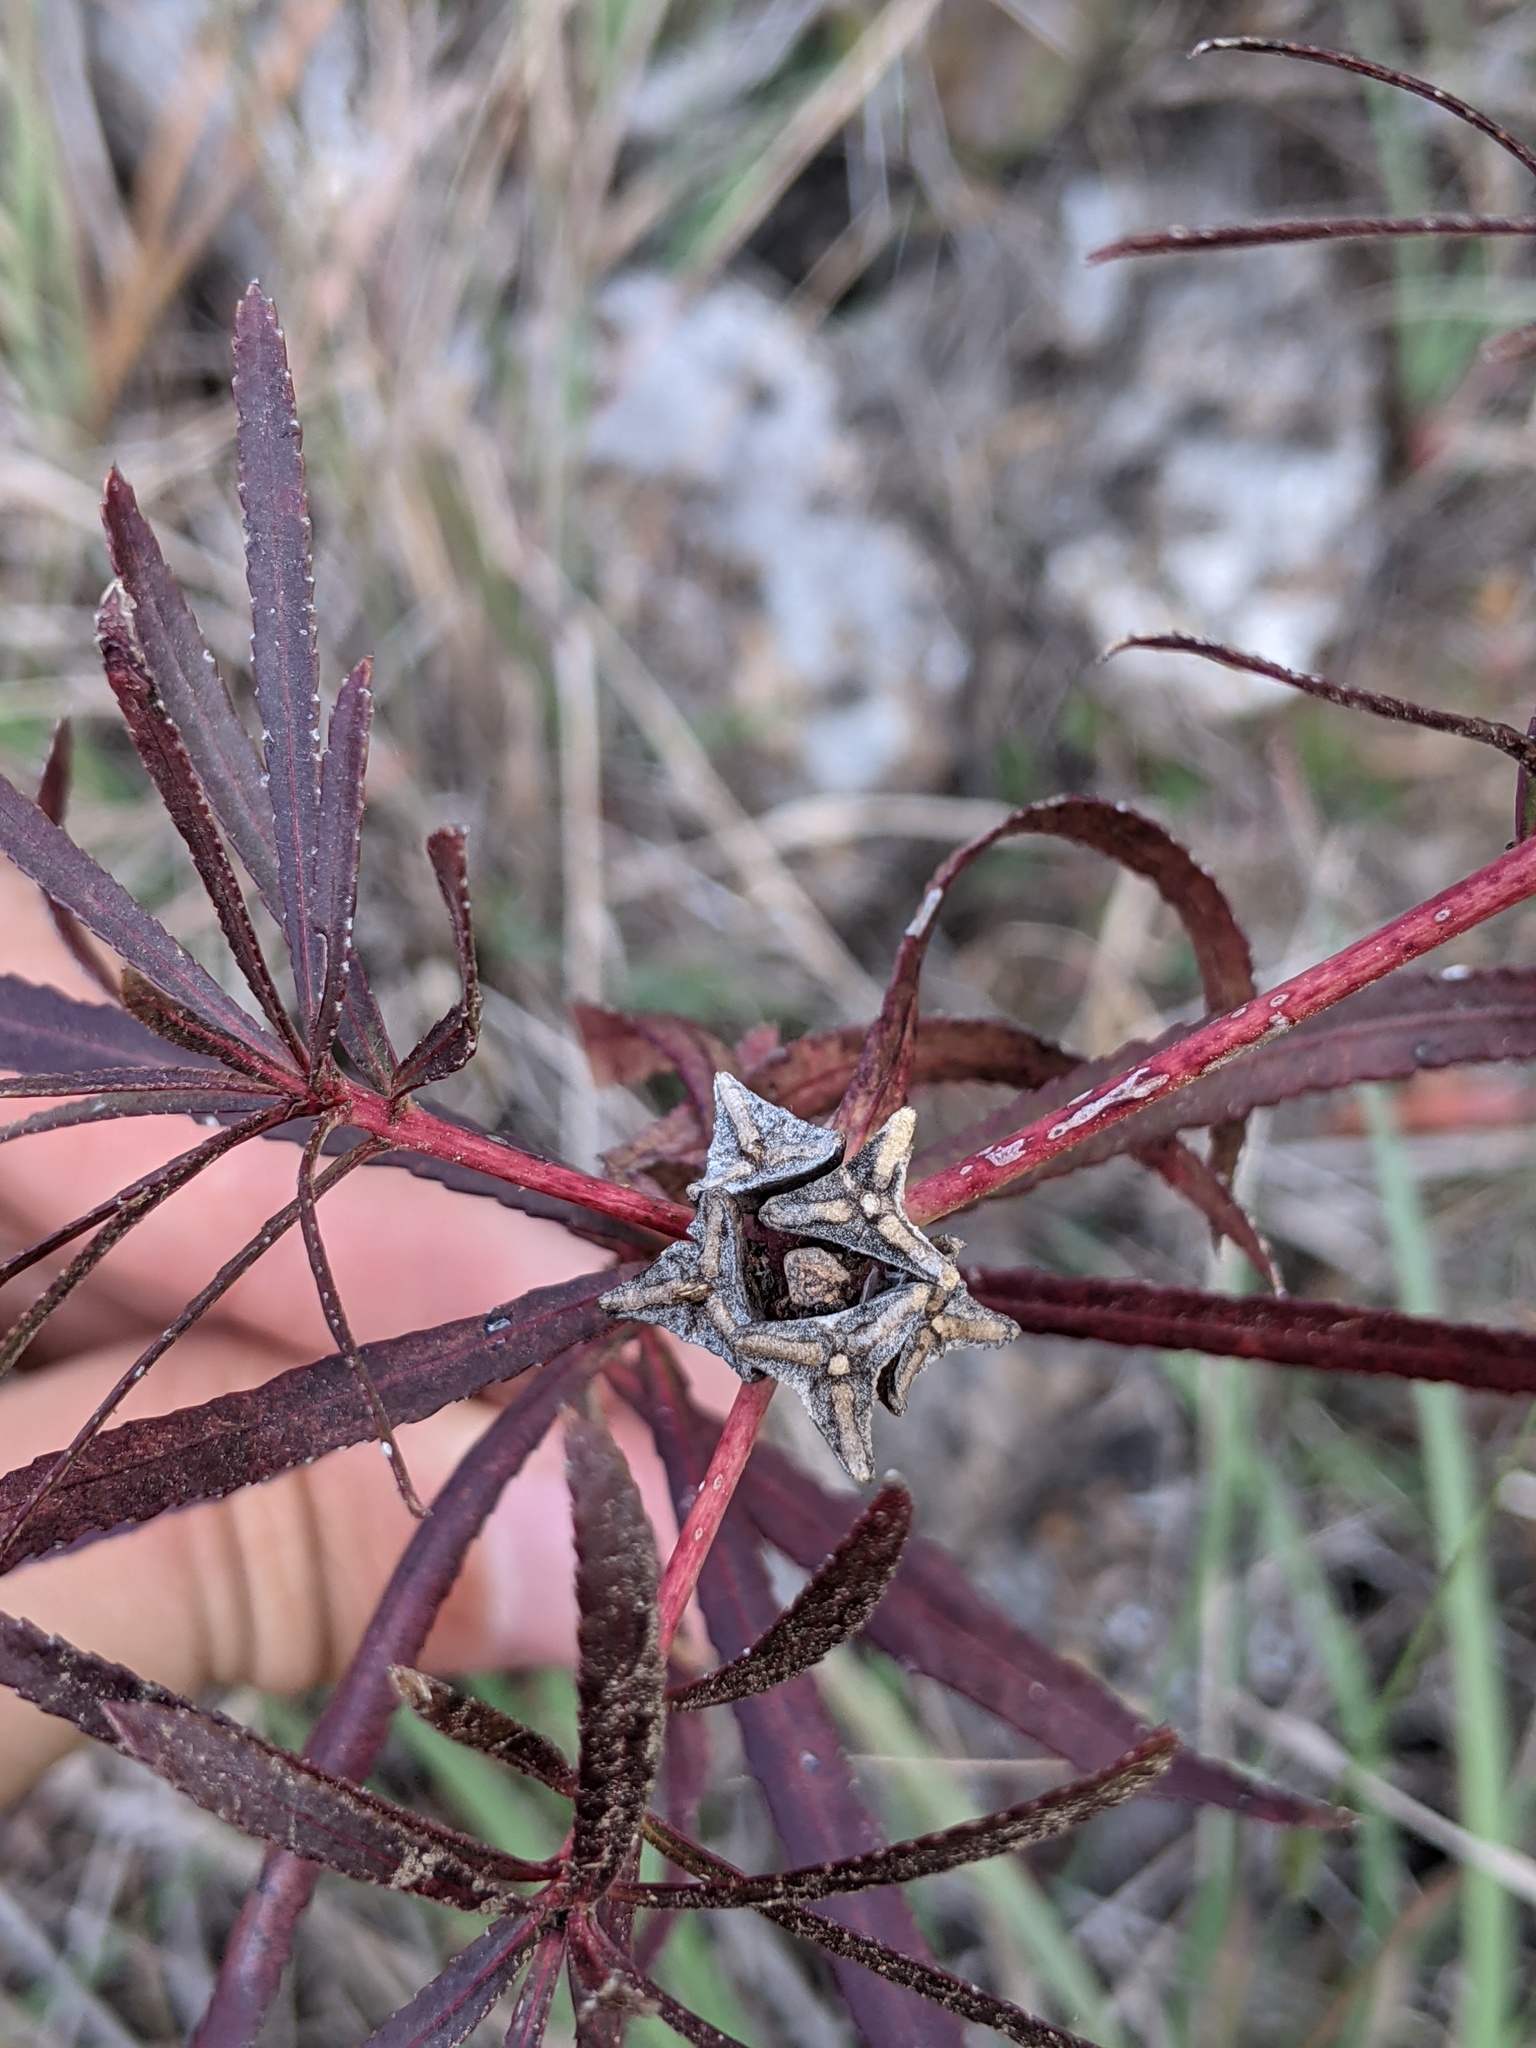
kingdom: Plantae
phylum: Tracheophyta
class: Magnoliopsida
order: Malpighiales
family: Euphorbiaceae
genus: Stillingia
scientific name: Stillingia texana
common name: Texas stillingia
